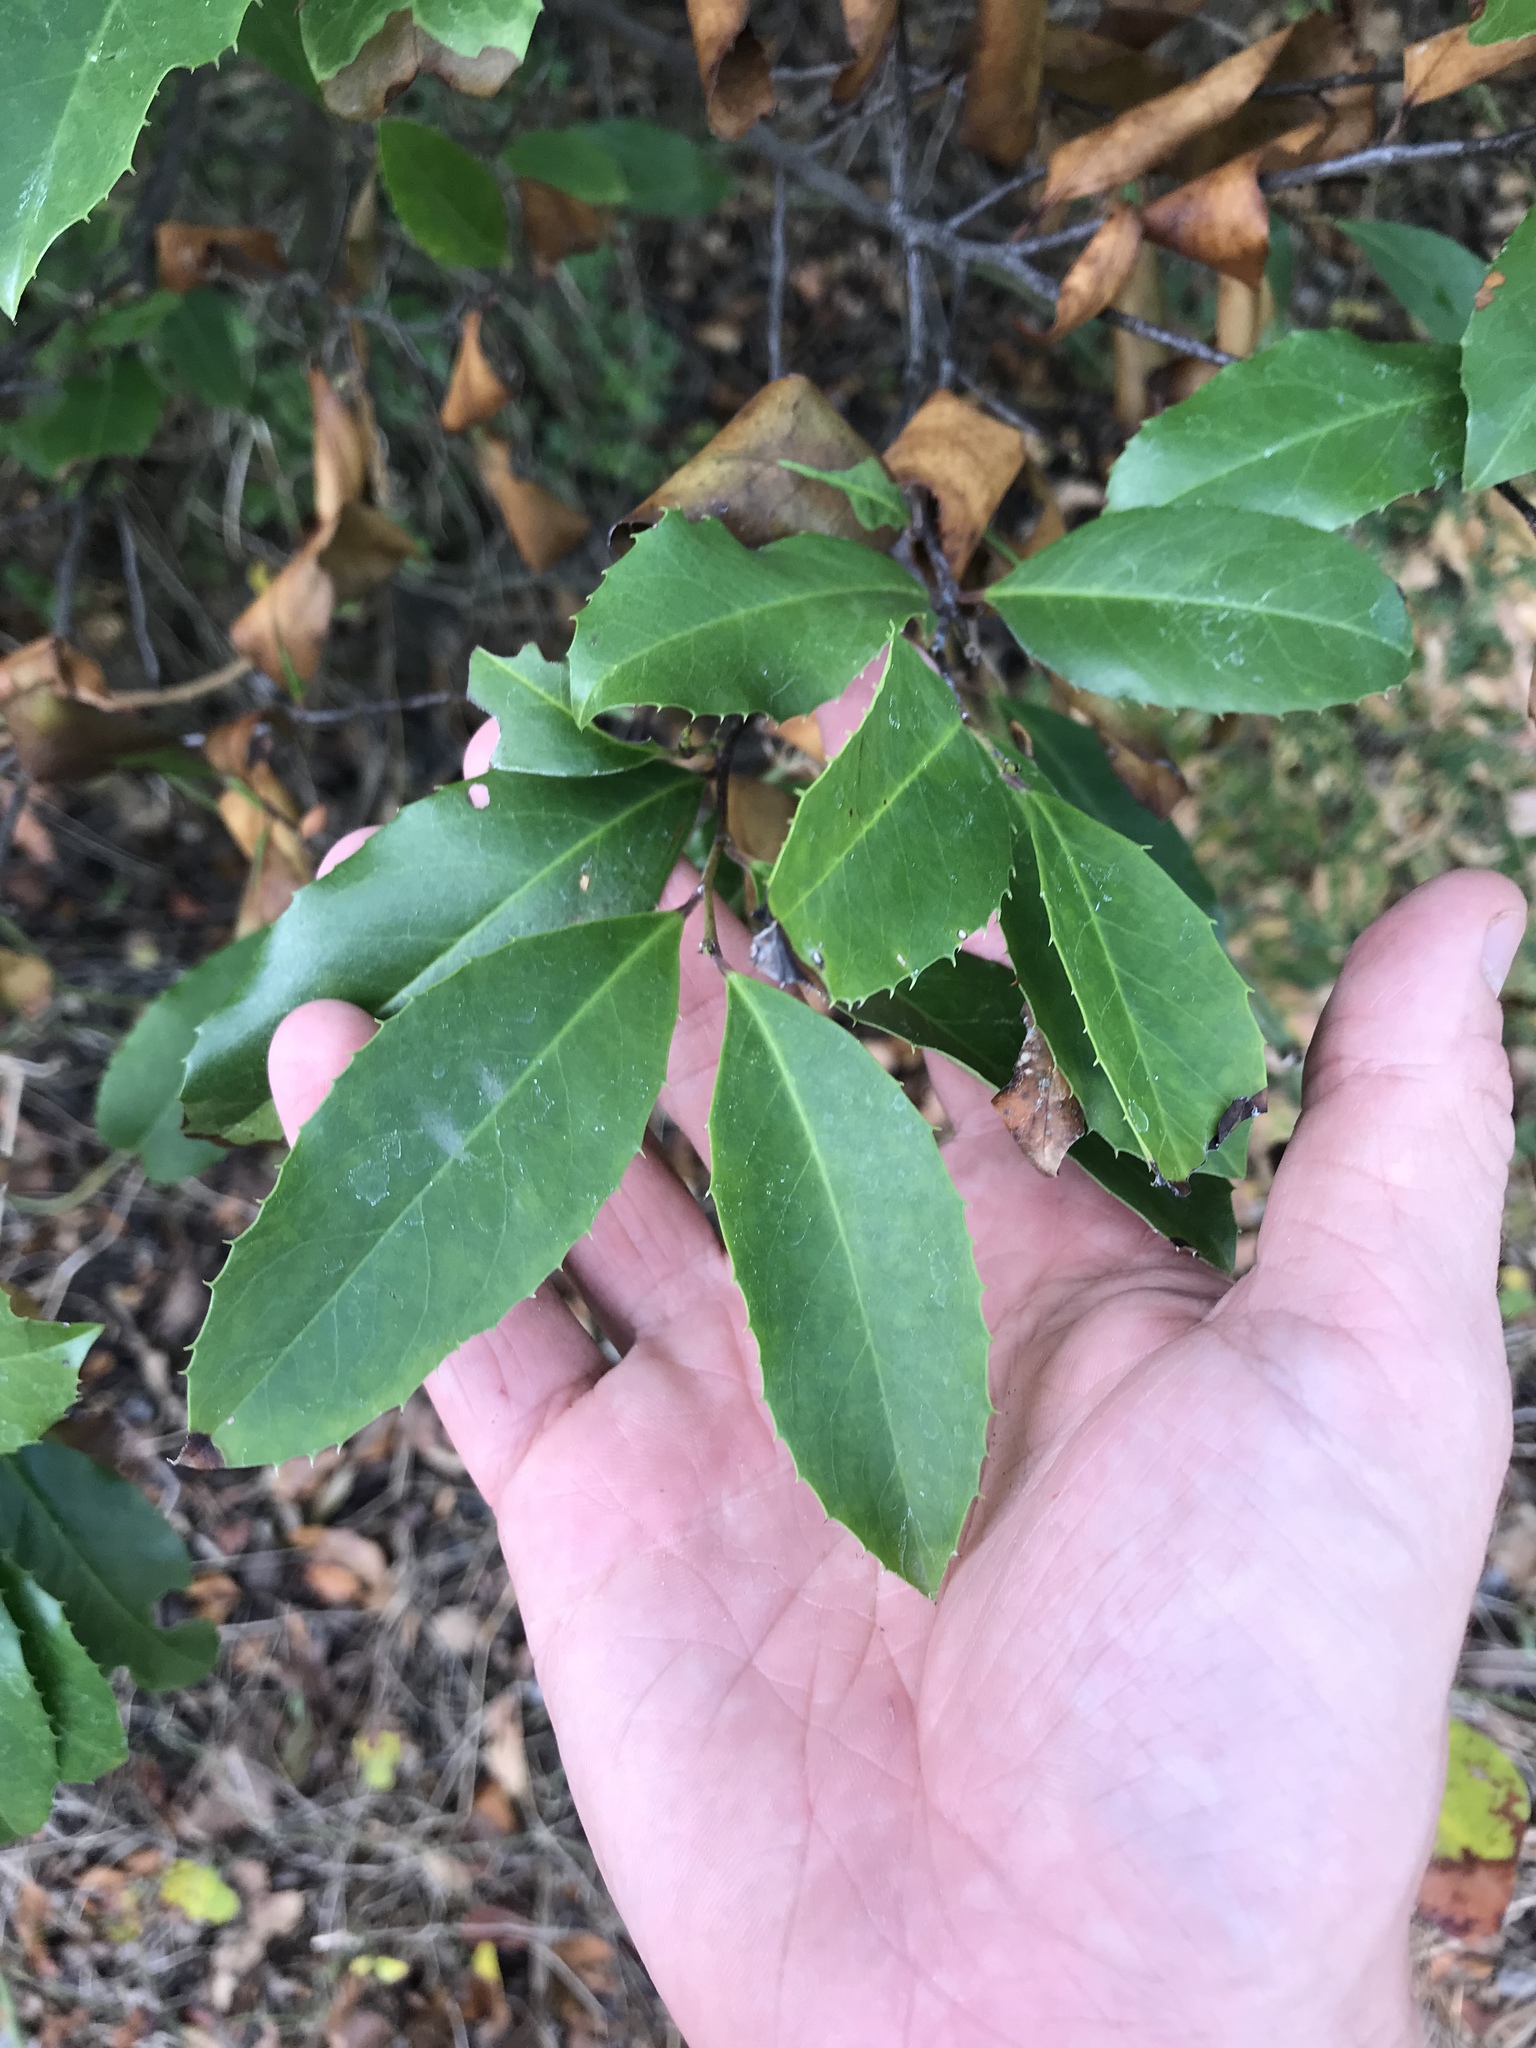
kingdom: Plantae
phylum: Tracheophyta
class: Magnoliopsida
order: Rosales
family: Rosaceae
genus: Prunus
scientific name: Prunus caroliniana
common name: Carolina laurel cherry
